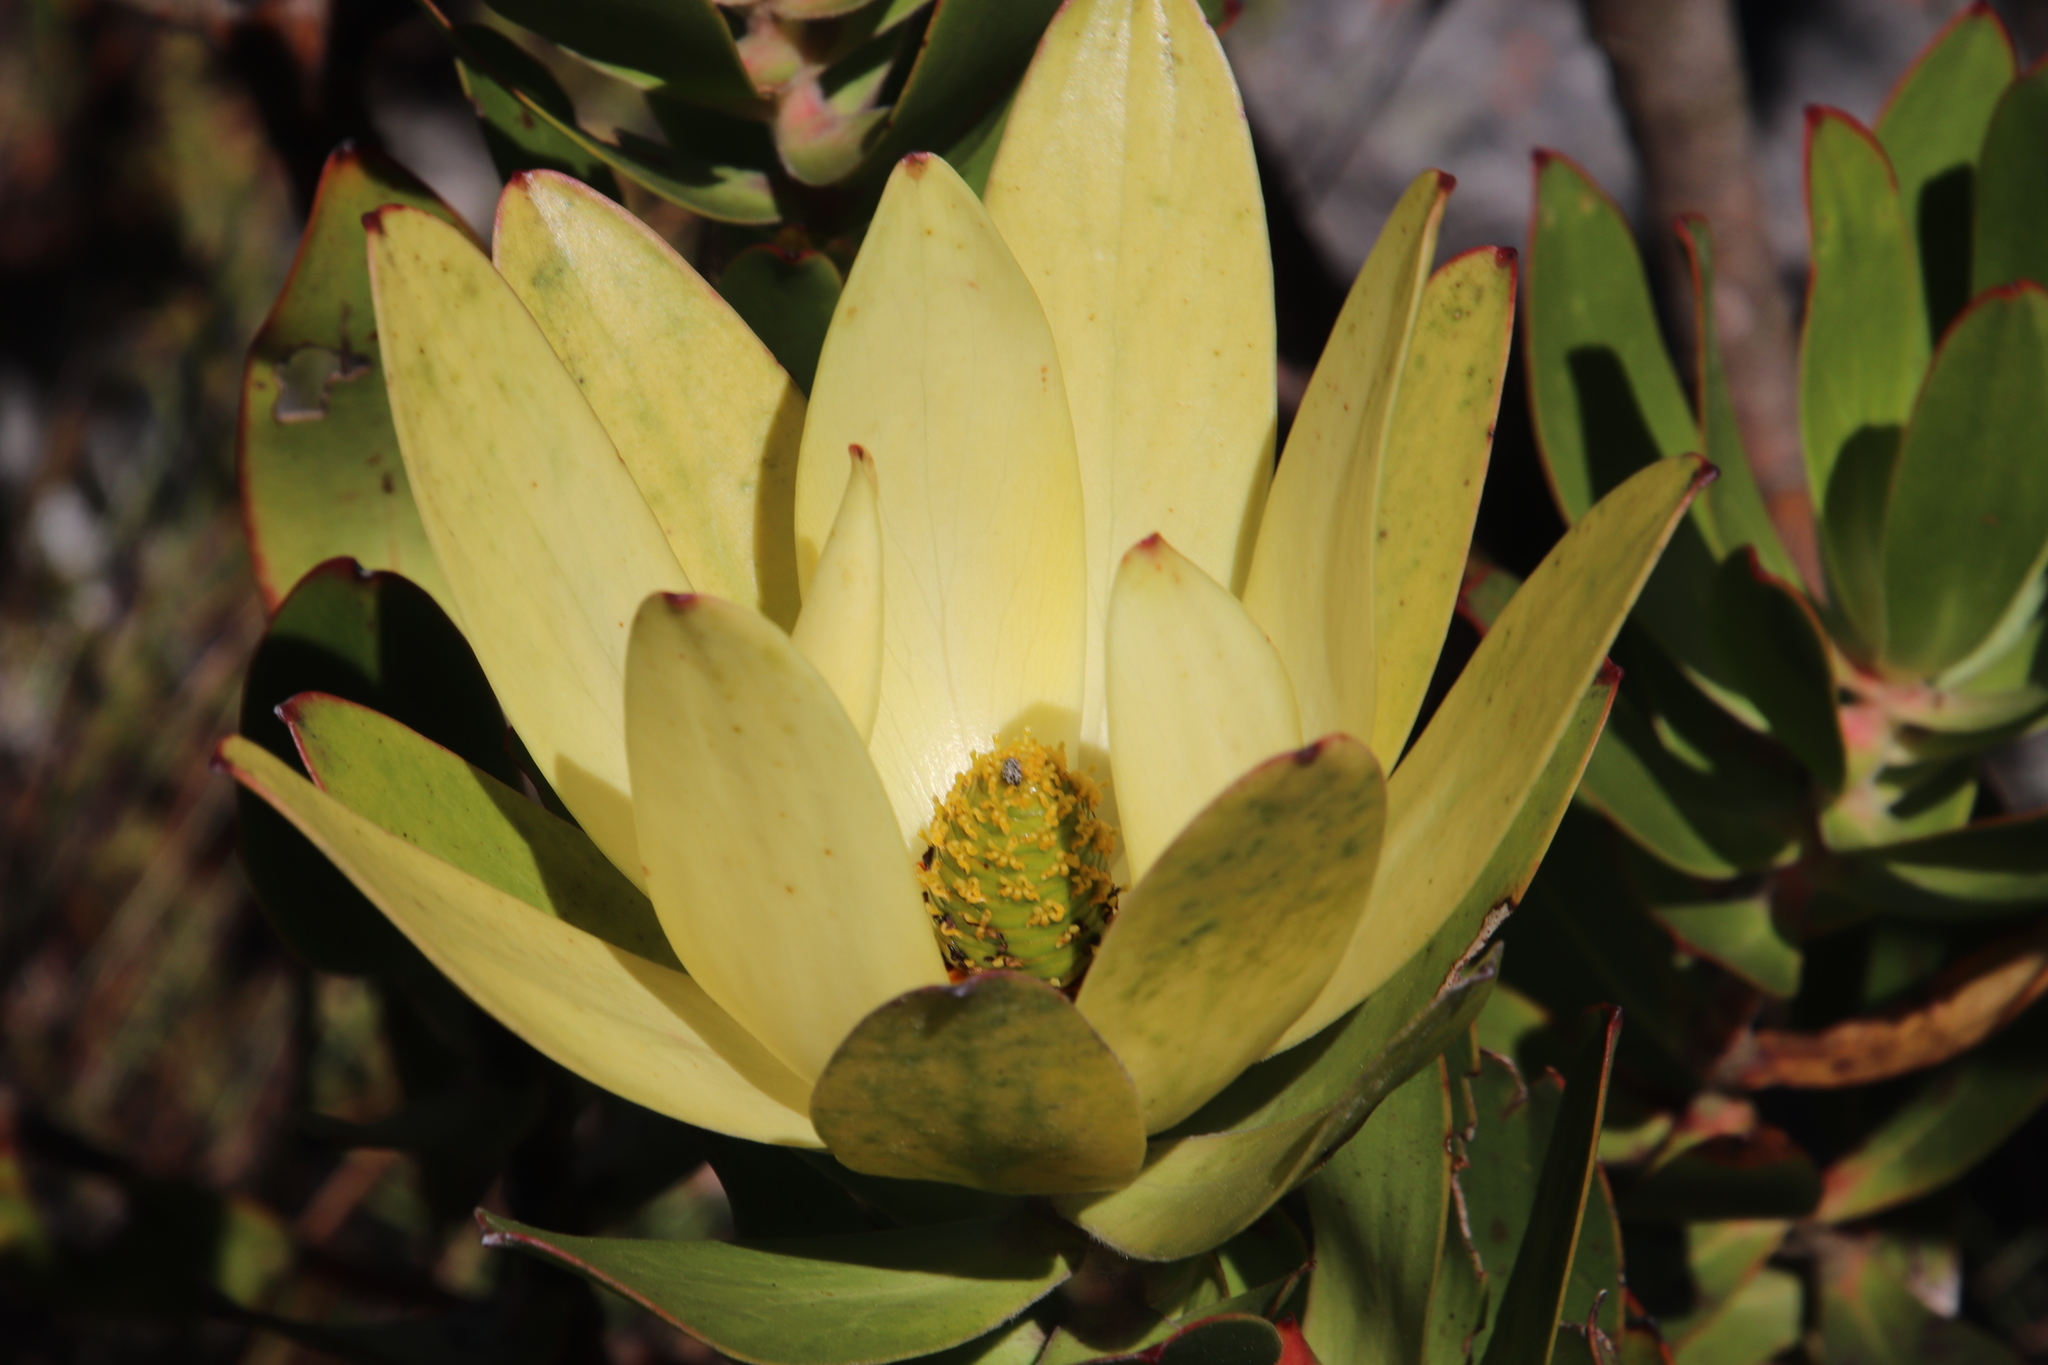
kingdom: Plantae
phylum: Tracheophyta
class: Magnoliopsida
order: Proteales
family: Proteaceae
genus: Leucadendron
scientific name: Leucadendron gandogeri
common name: Broad-leaf conebush
